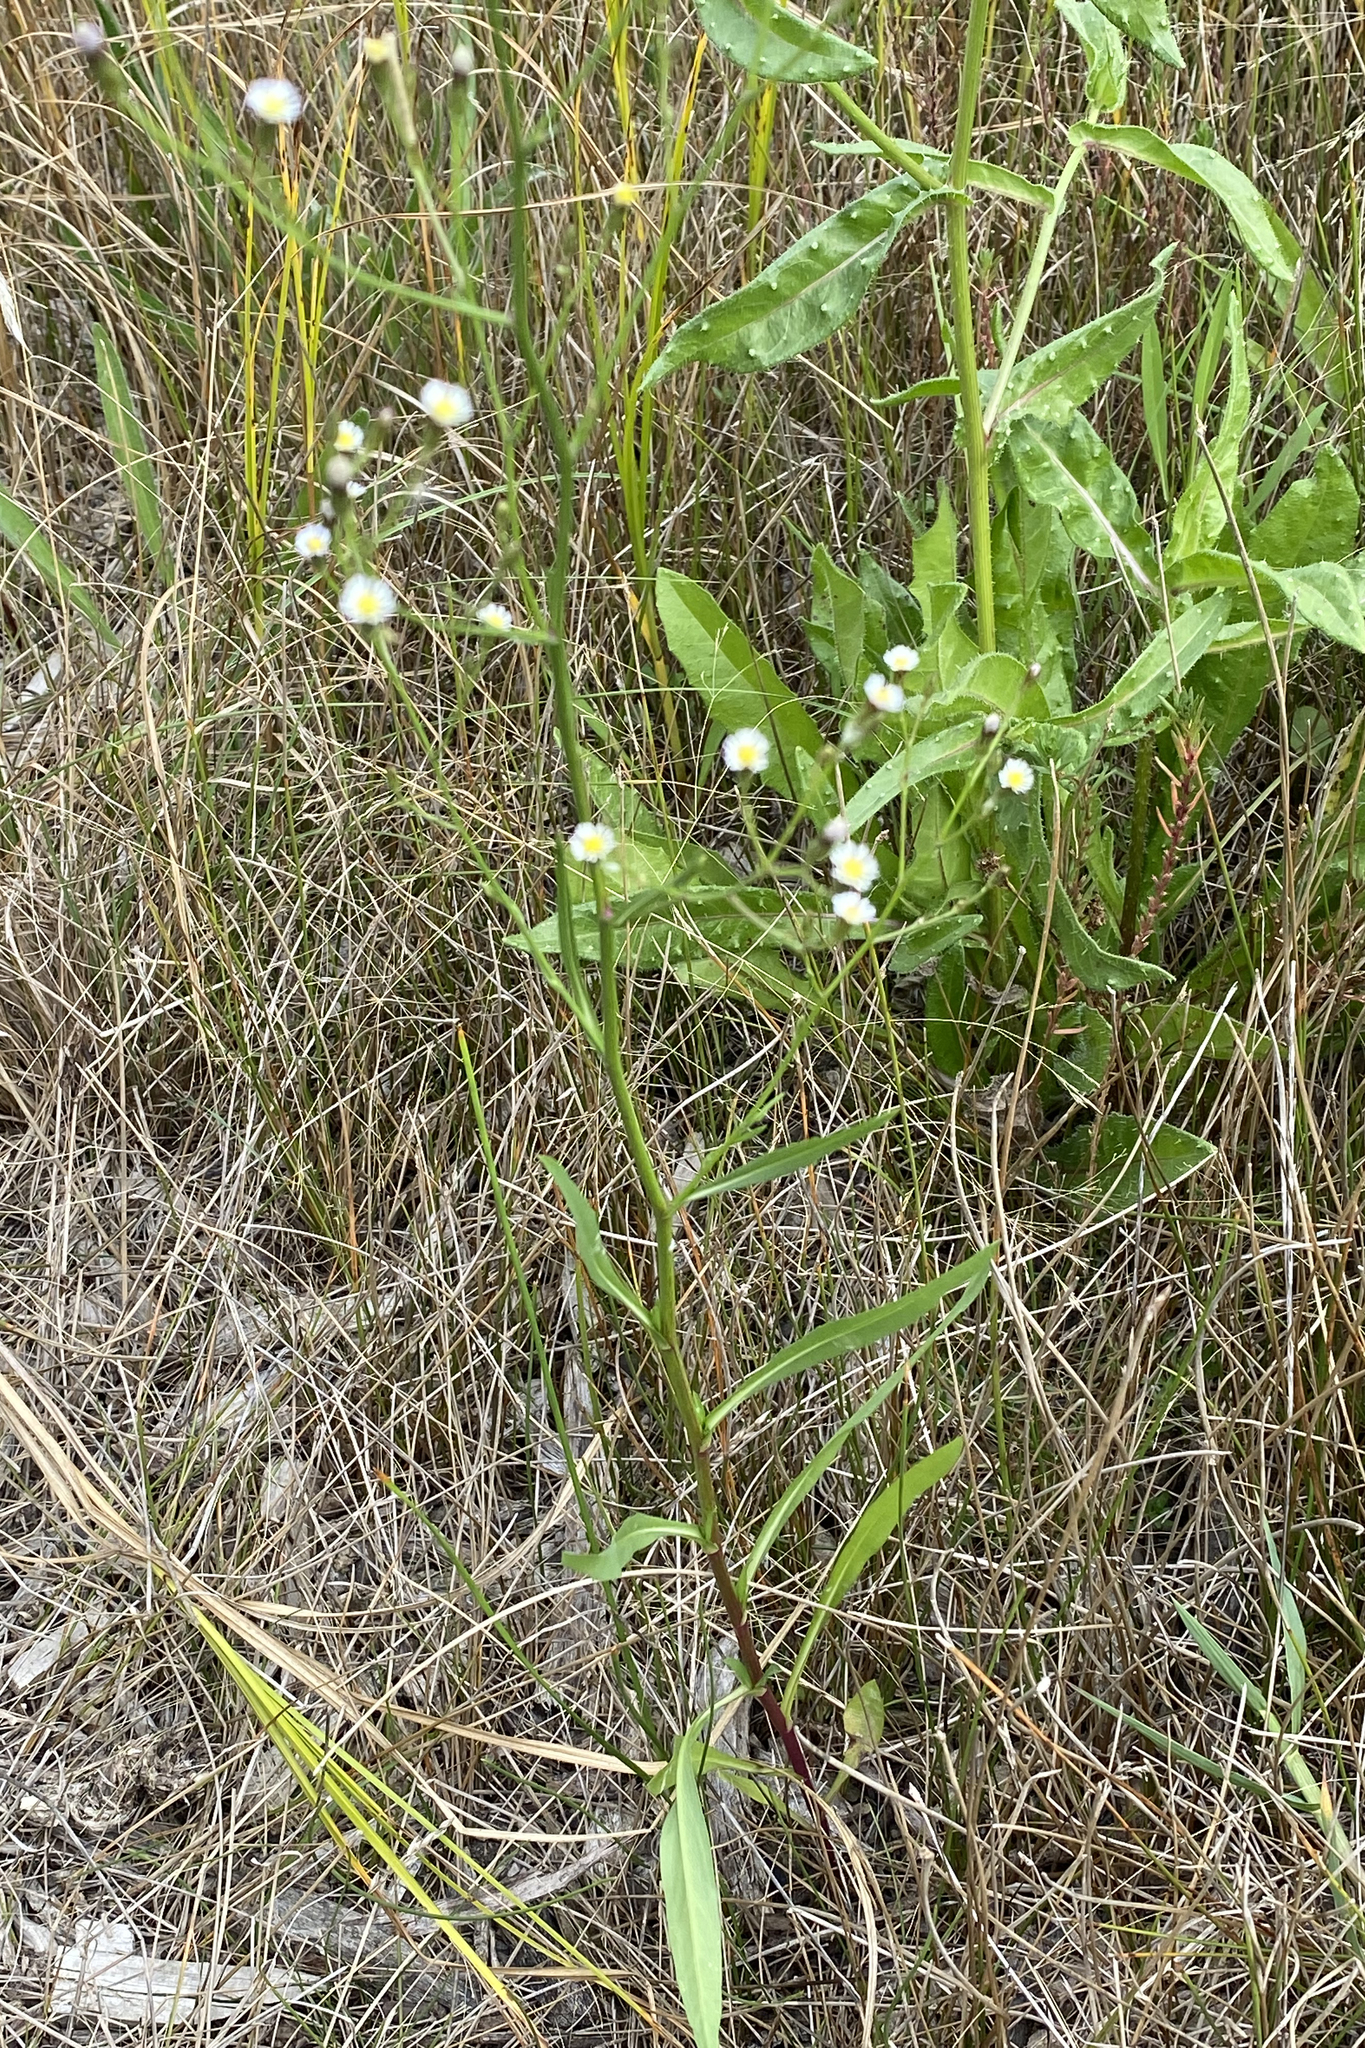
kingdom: Plantae
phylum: Tracheophyta
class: Magnoliopsida
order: Asterales
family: Asteraceae
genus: Symphyotrichum
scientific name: Symphyotrichum subulatum
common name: Annual saltmarsh aster
